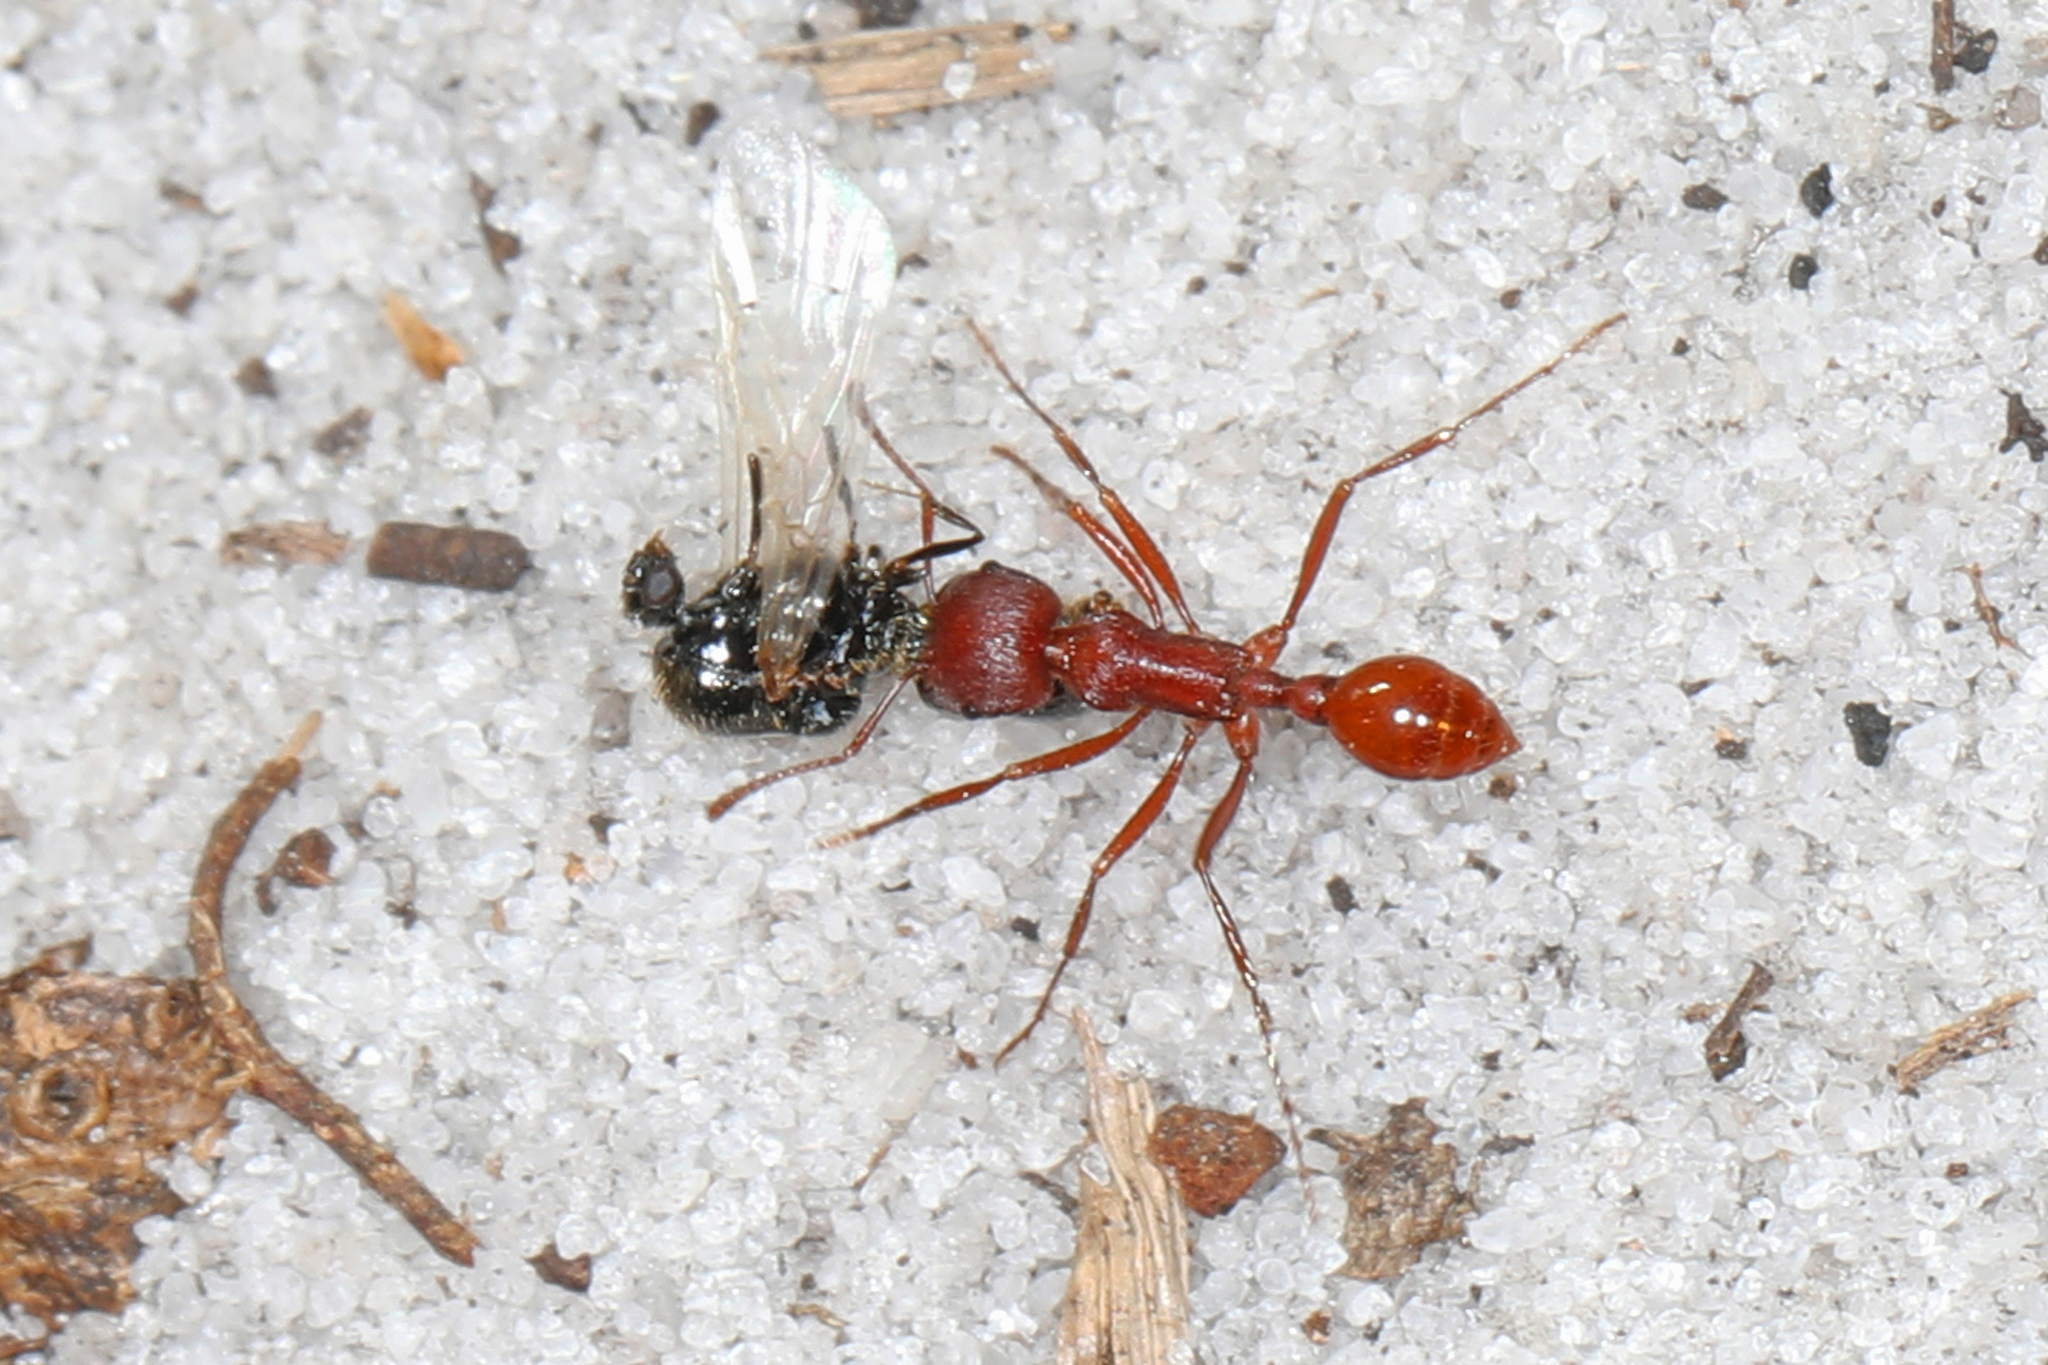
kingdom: Animalia
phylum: Arthropoda
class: Insecta
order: Hymenoptera
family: Formicidae
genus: Pogonomyrmex
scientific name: Pogonomyrmex badius
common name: Florida harvester ant
